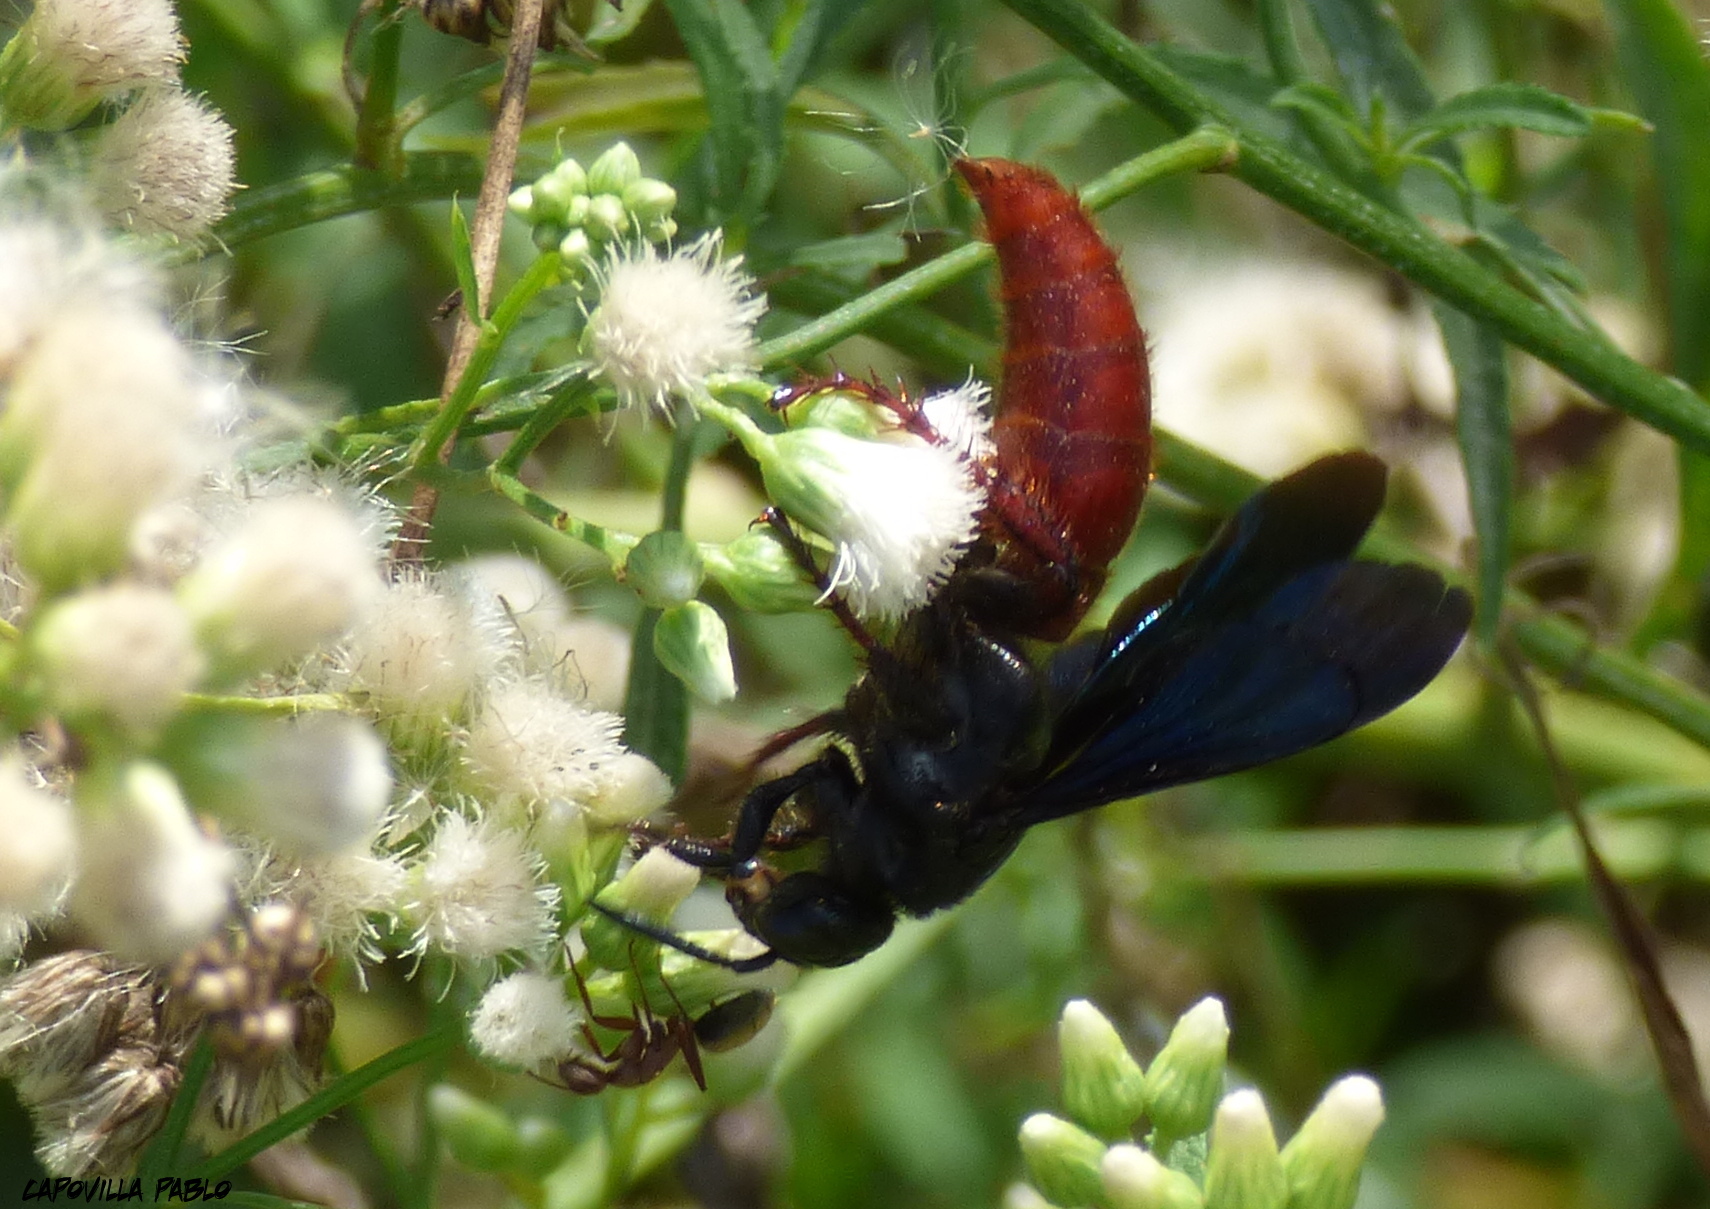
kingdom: Animalia
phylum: Arthropoda
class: Insecta
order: Hymenoptera
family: Scoliidae
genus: Scolia
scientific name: Scolia rufiventris
